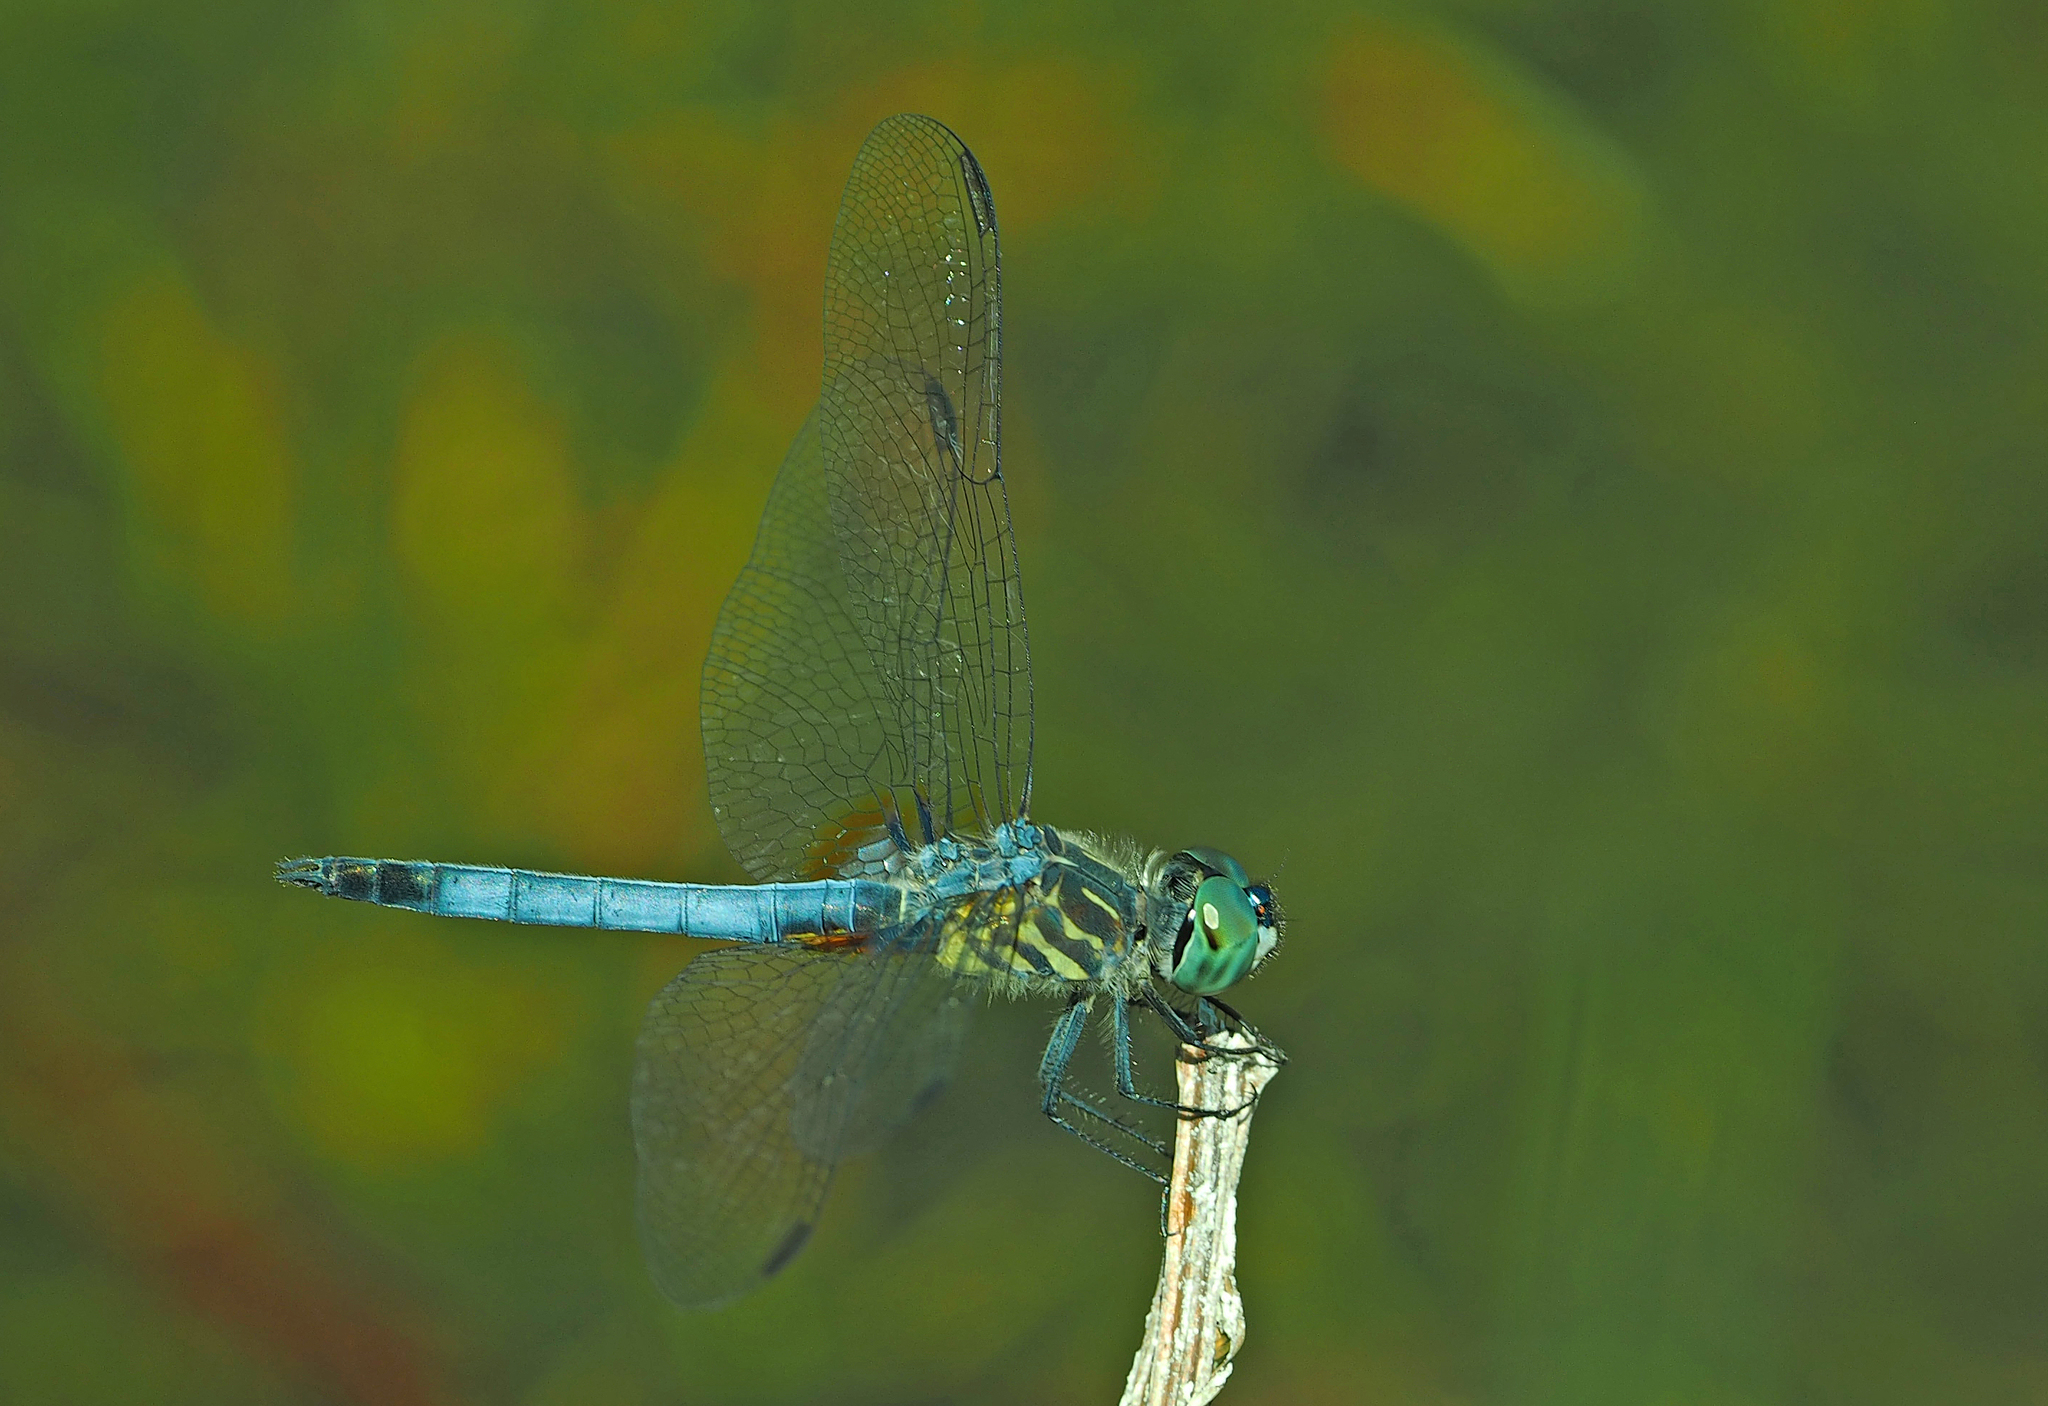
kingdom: Animalia
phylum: Arthropoda
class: Insecta
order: Odonata
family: Libellulidae
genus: Pachydiplax
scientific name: Pachydiplax longipennis
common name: Blue dasher
